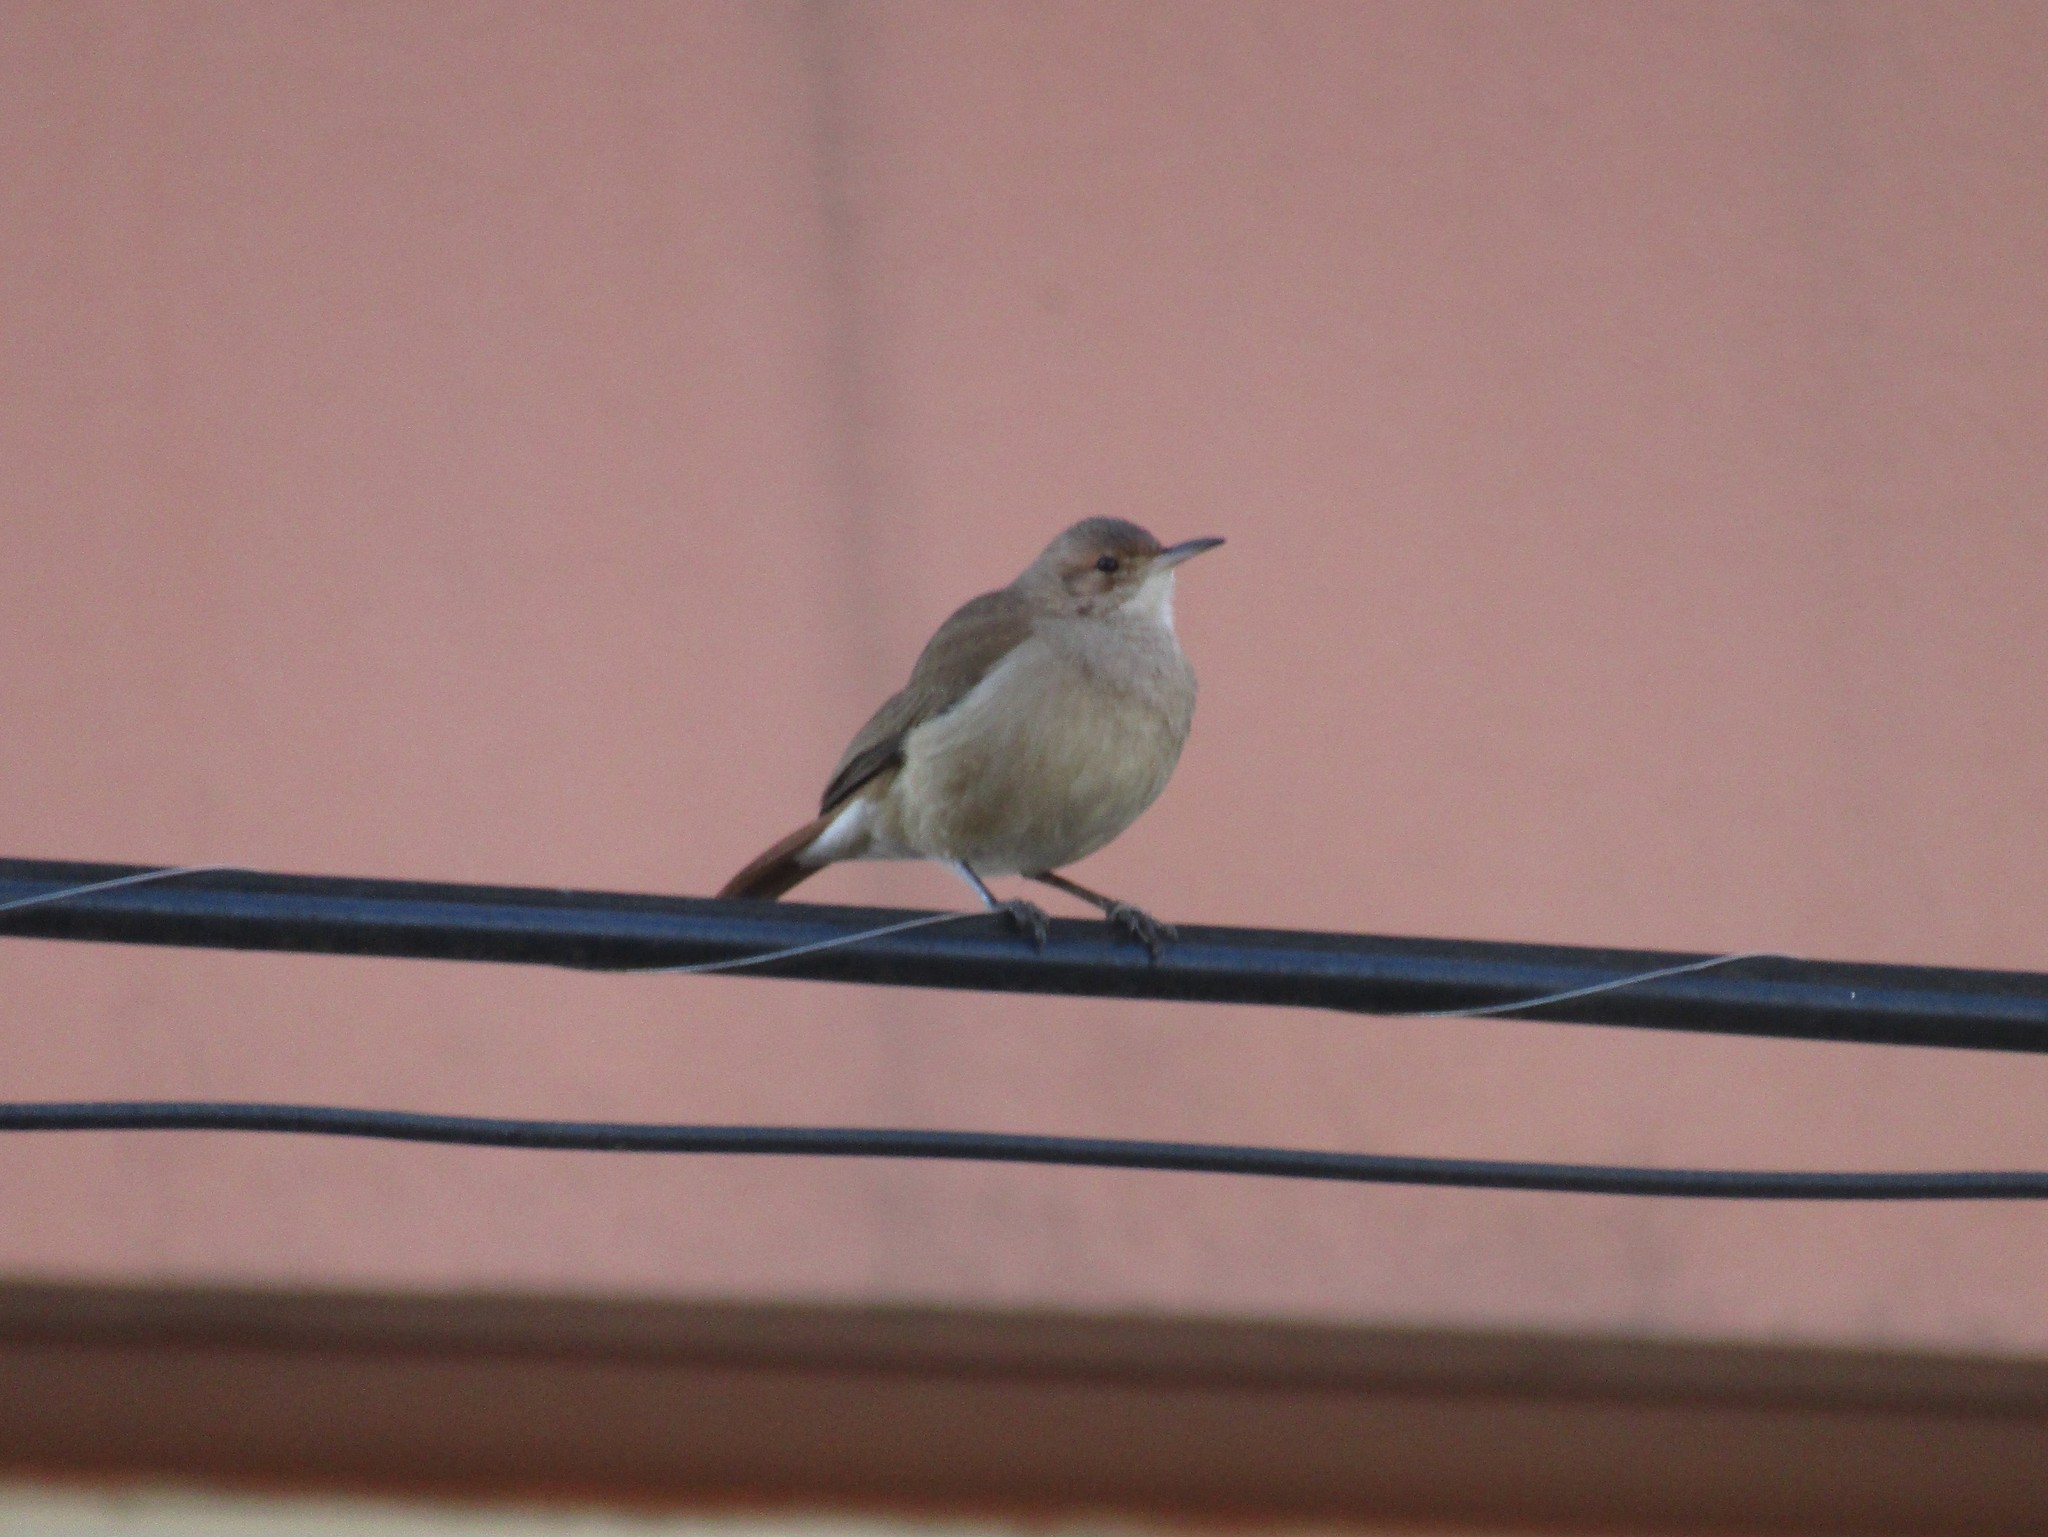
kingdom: Animalia
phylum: Chordata
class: Aves
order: Passeriformes
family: Furnariidae
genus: Furnarius
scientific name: Furnarius rufus
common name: Rufous hornero
